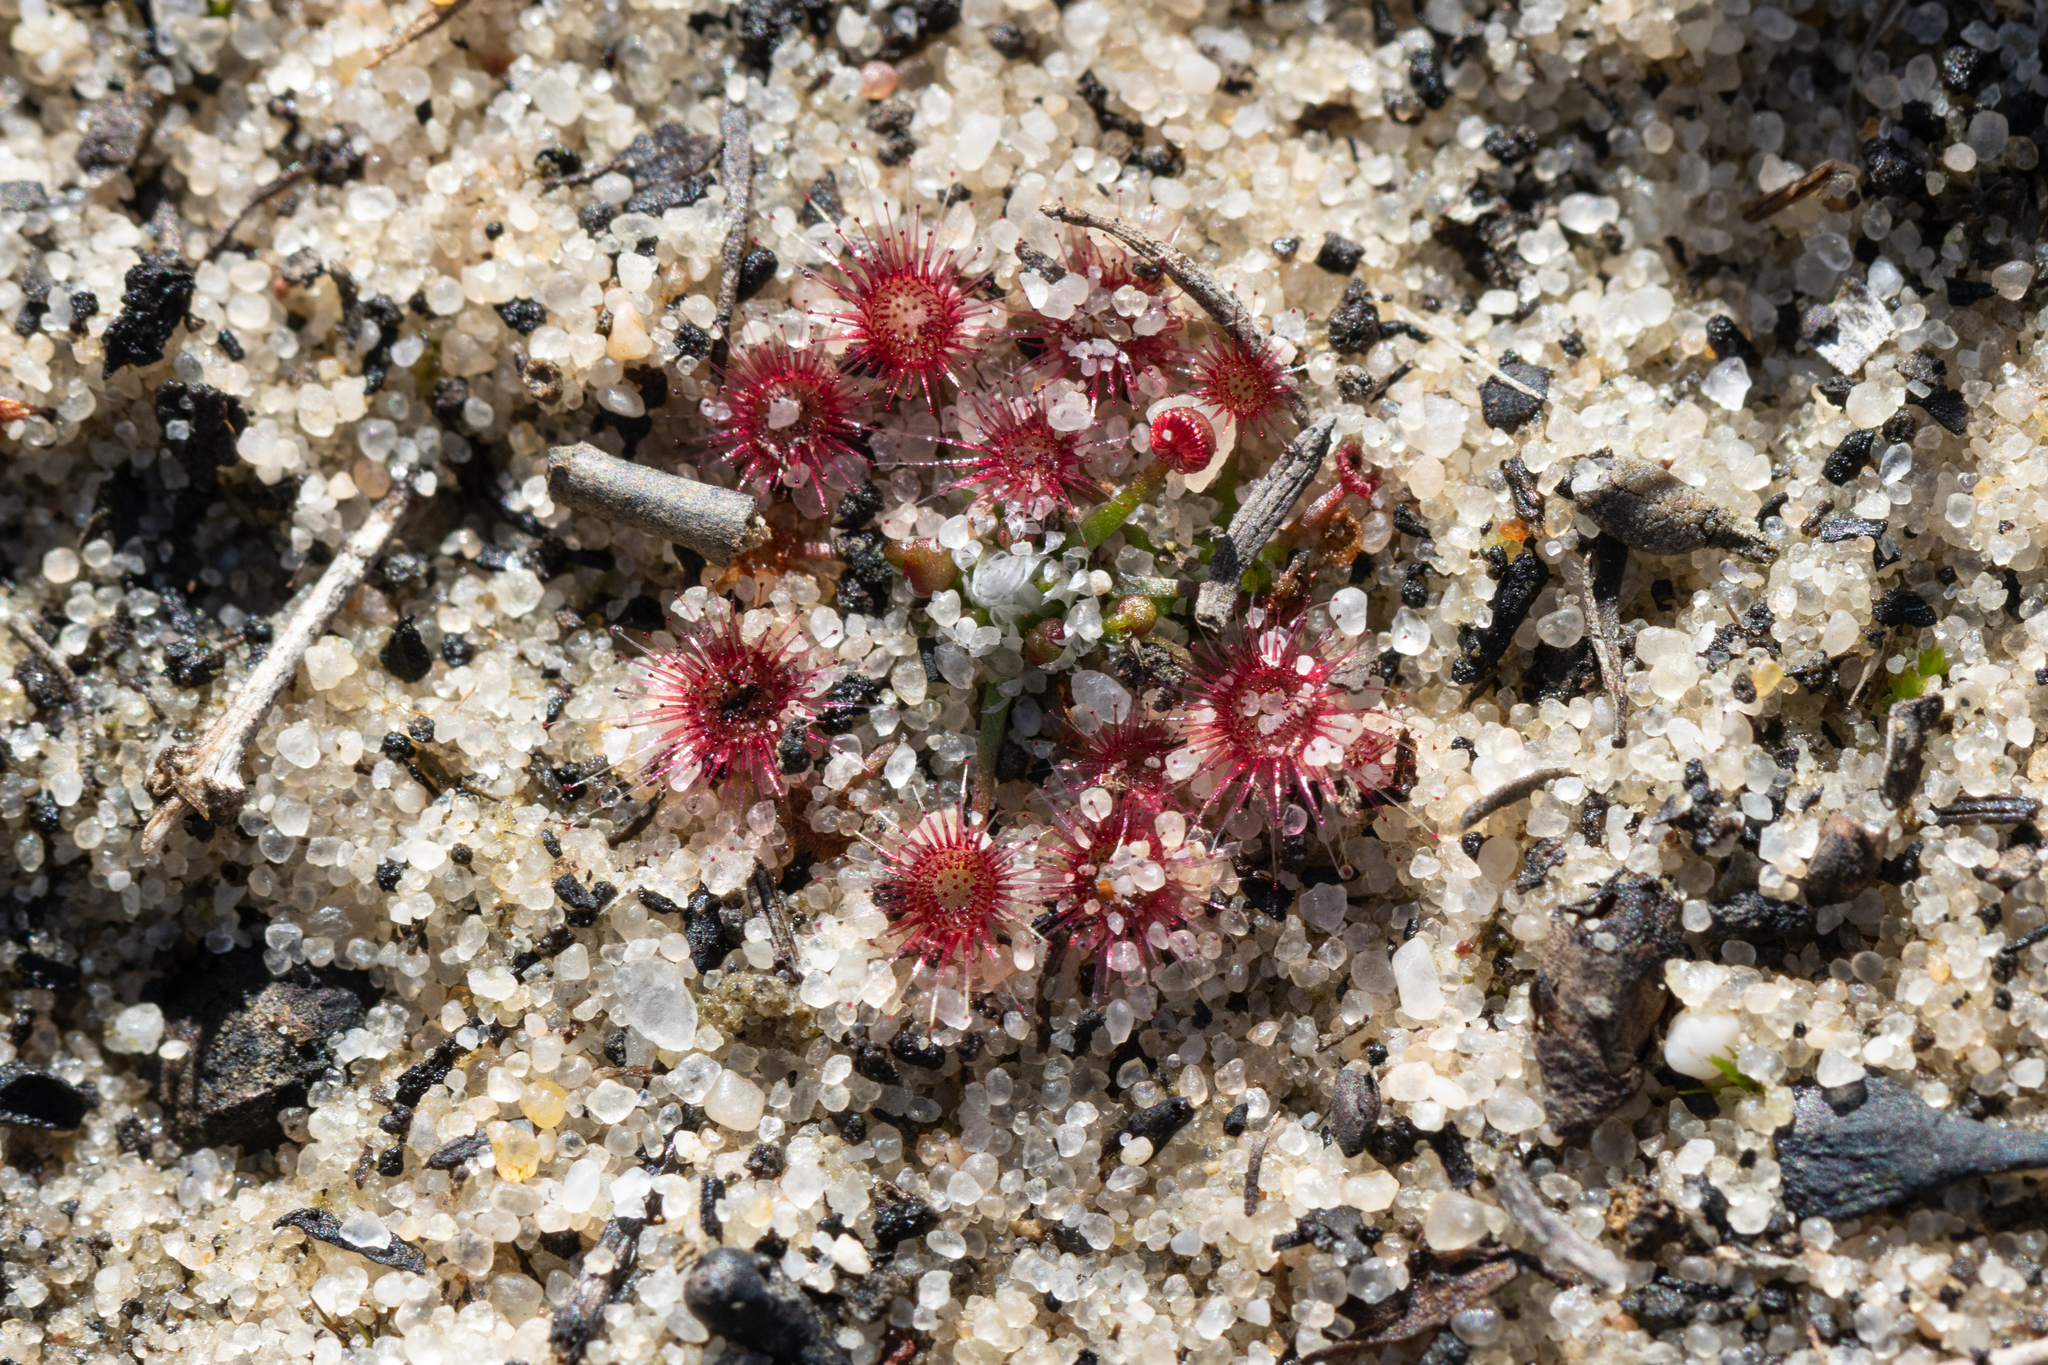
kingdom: Plantae
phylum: Tracheophyta
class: Magnoliopsida
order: Caryophyllales
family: Droseraceae
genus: Drosera
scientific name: Drosera pygmaea
